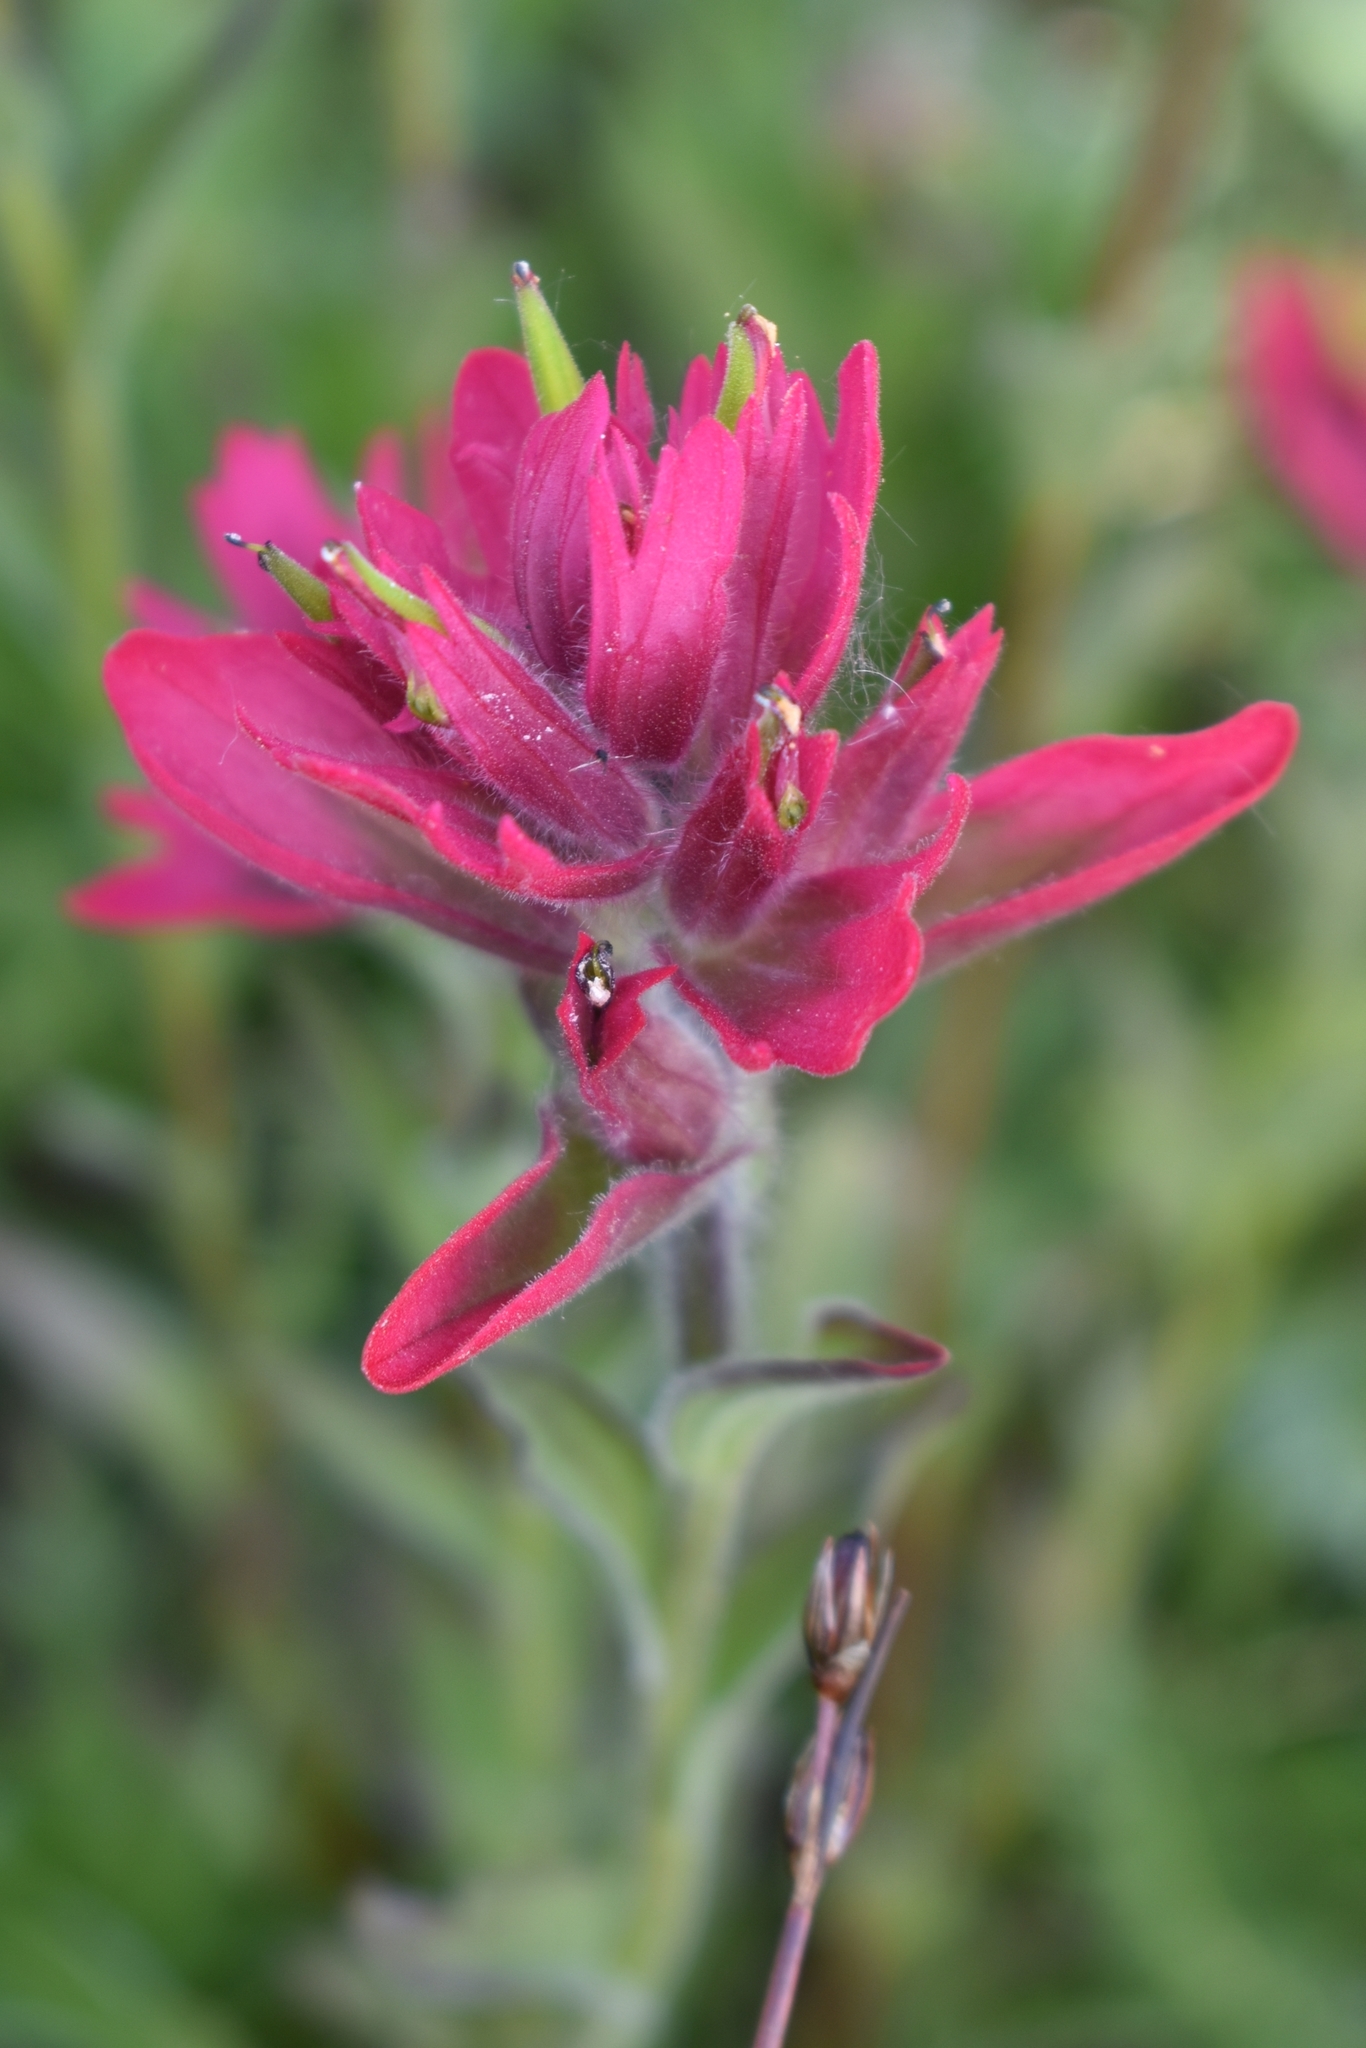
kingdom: Plantae
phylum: Tracheophyta
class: Magnoliopsida
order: Lamiales
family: Orobanchaceae
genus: Castilleja
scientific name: Castilleja rhexifolia
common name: Rocky mountain paintbrush
